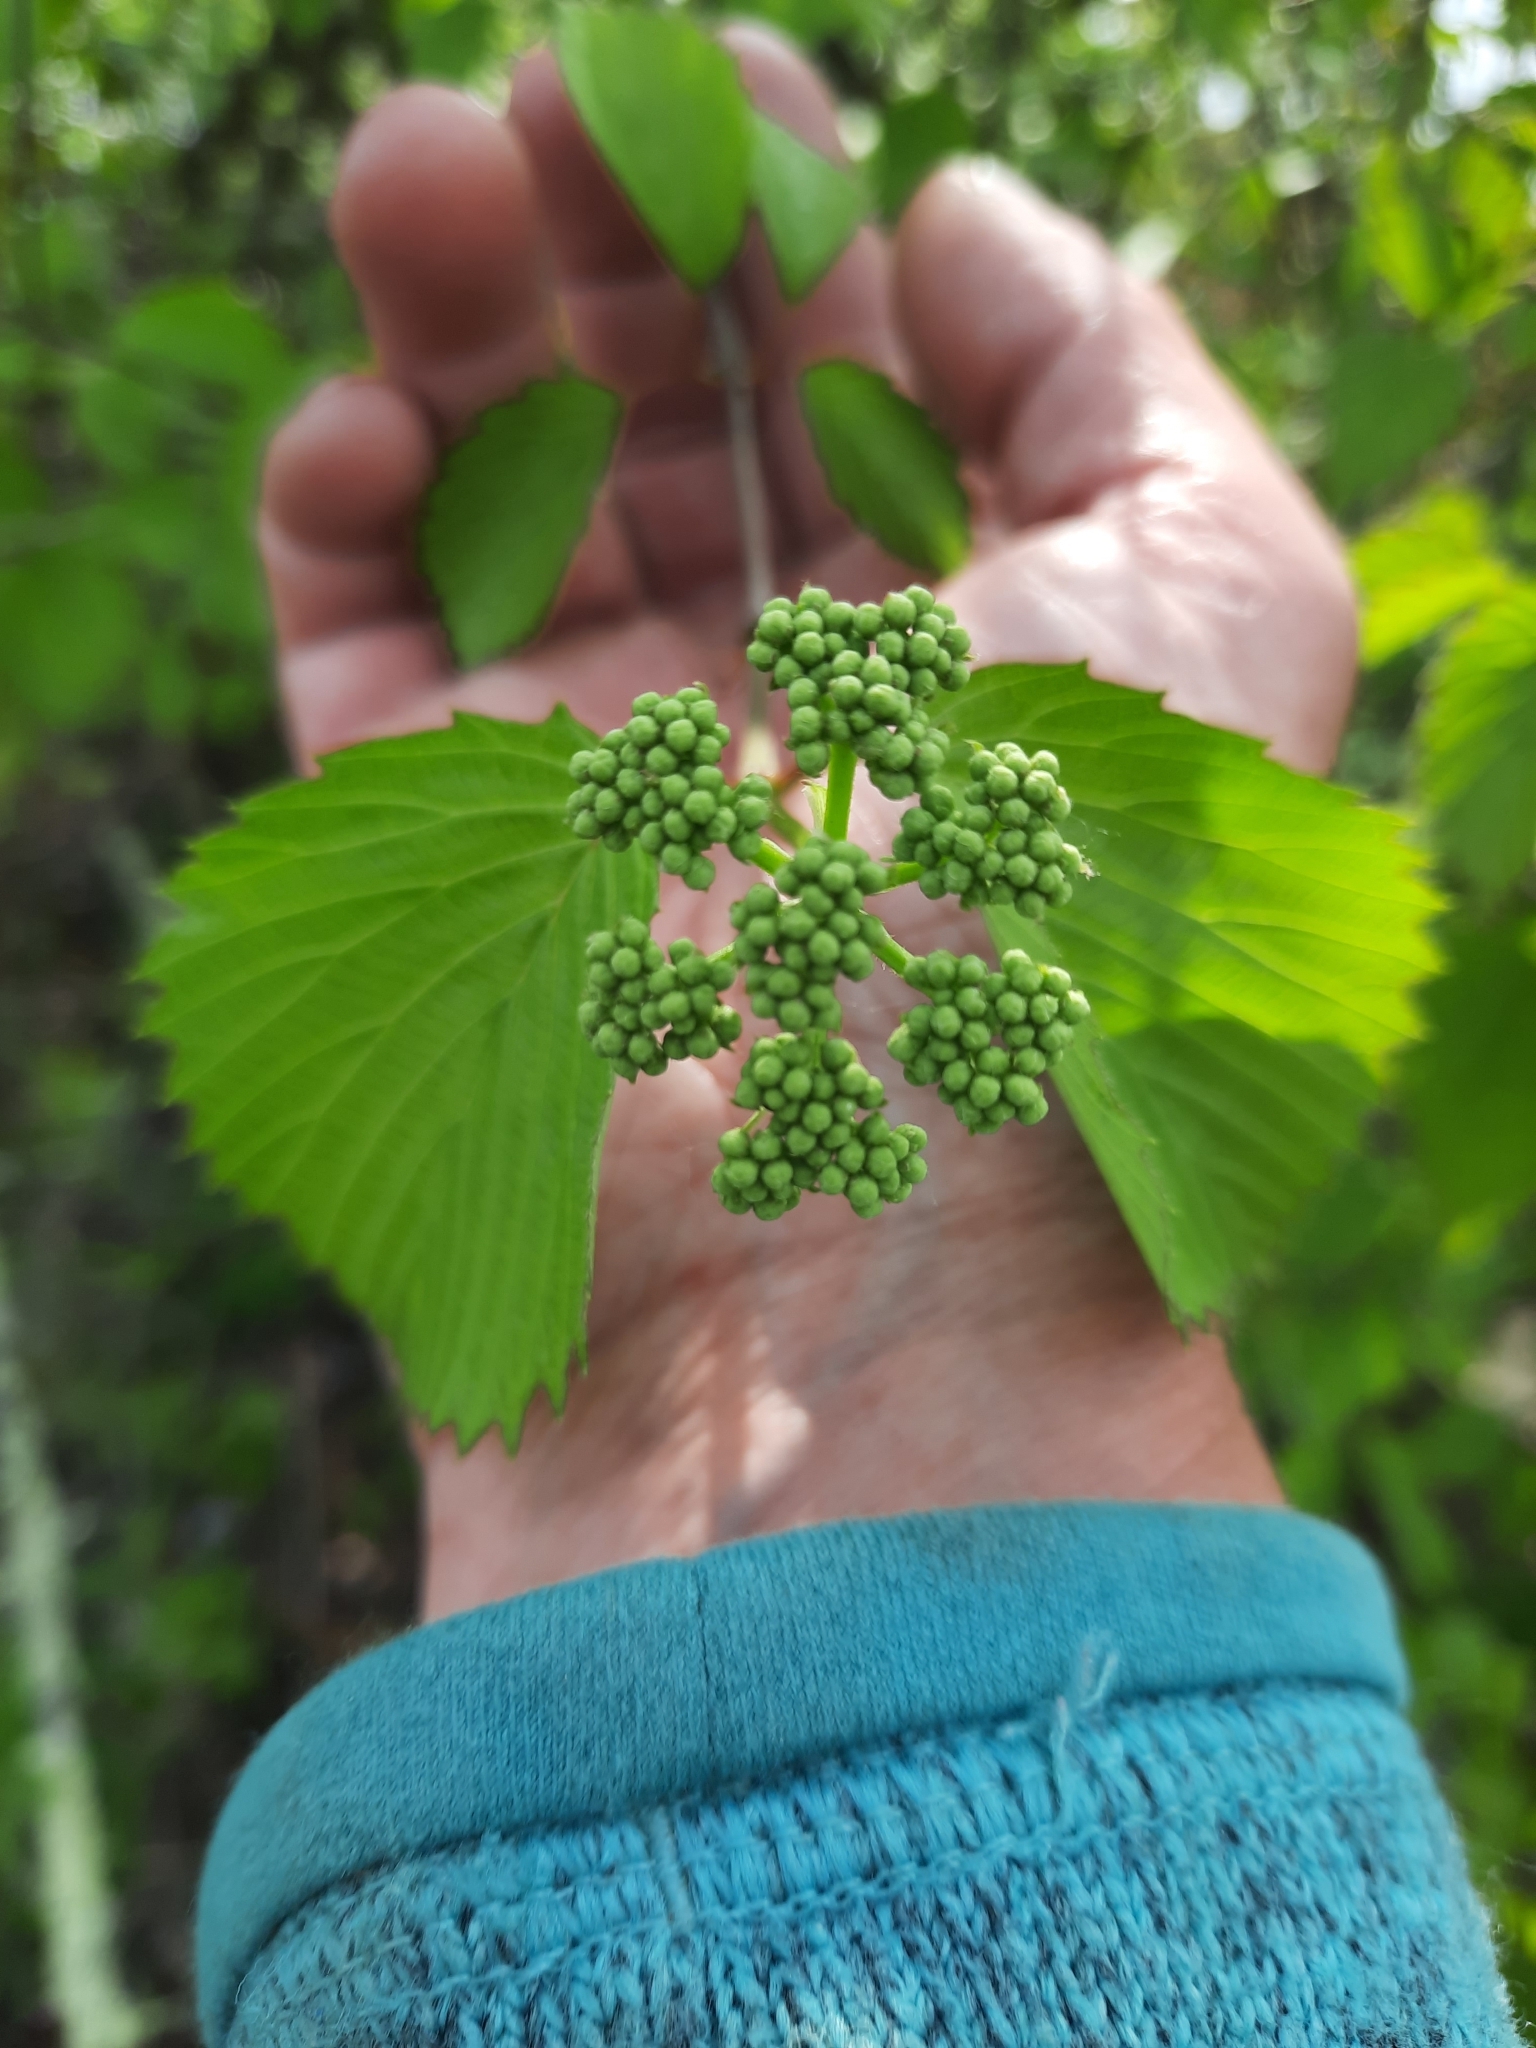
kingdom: Plantae
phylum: Tracheophyta
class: Magnoliopsida
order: Dipsacales
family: Viburnaceae
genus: Viburnum
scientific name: Viburnum dentatum
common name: Arrow-wood
